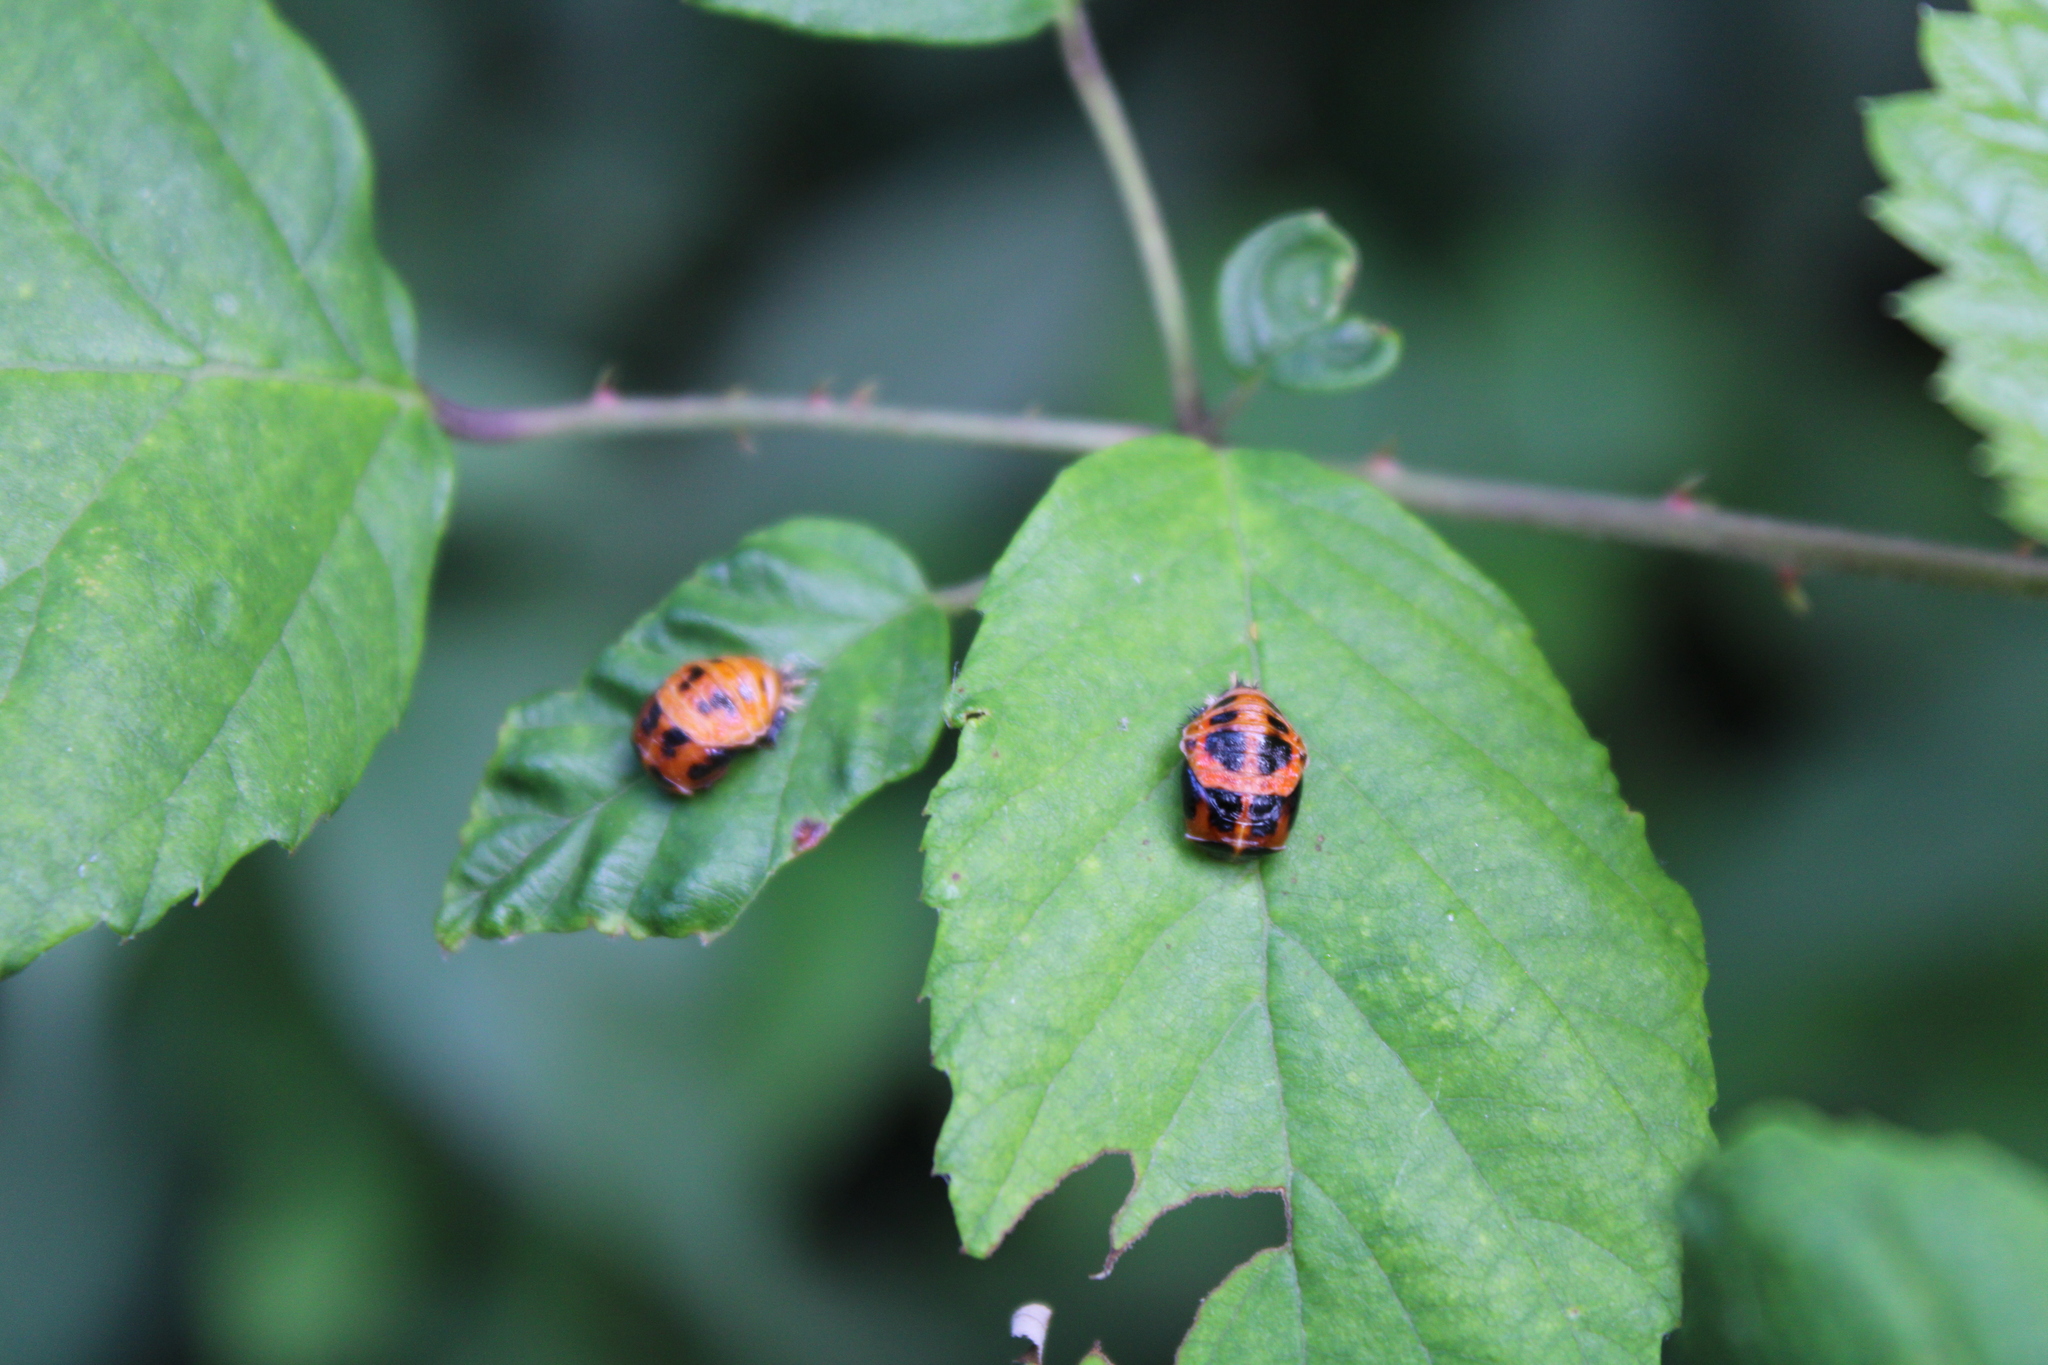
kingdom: Animalia
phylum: Arthropoda
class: Insecta
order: Coleoptera
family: Coccinellidae
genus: Harmonia
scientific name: Harmonia axyridis
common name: Harlequin ladybird
